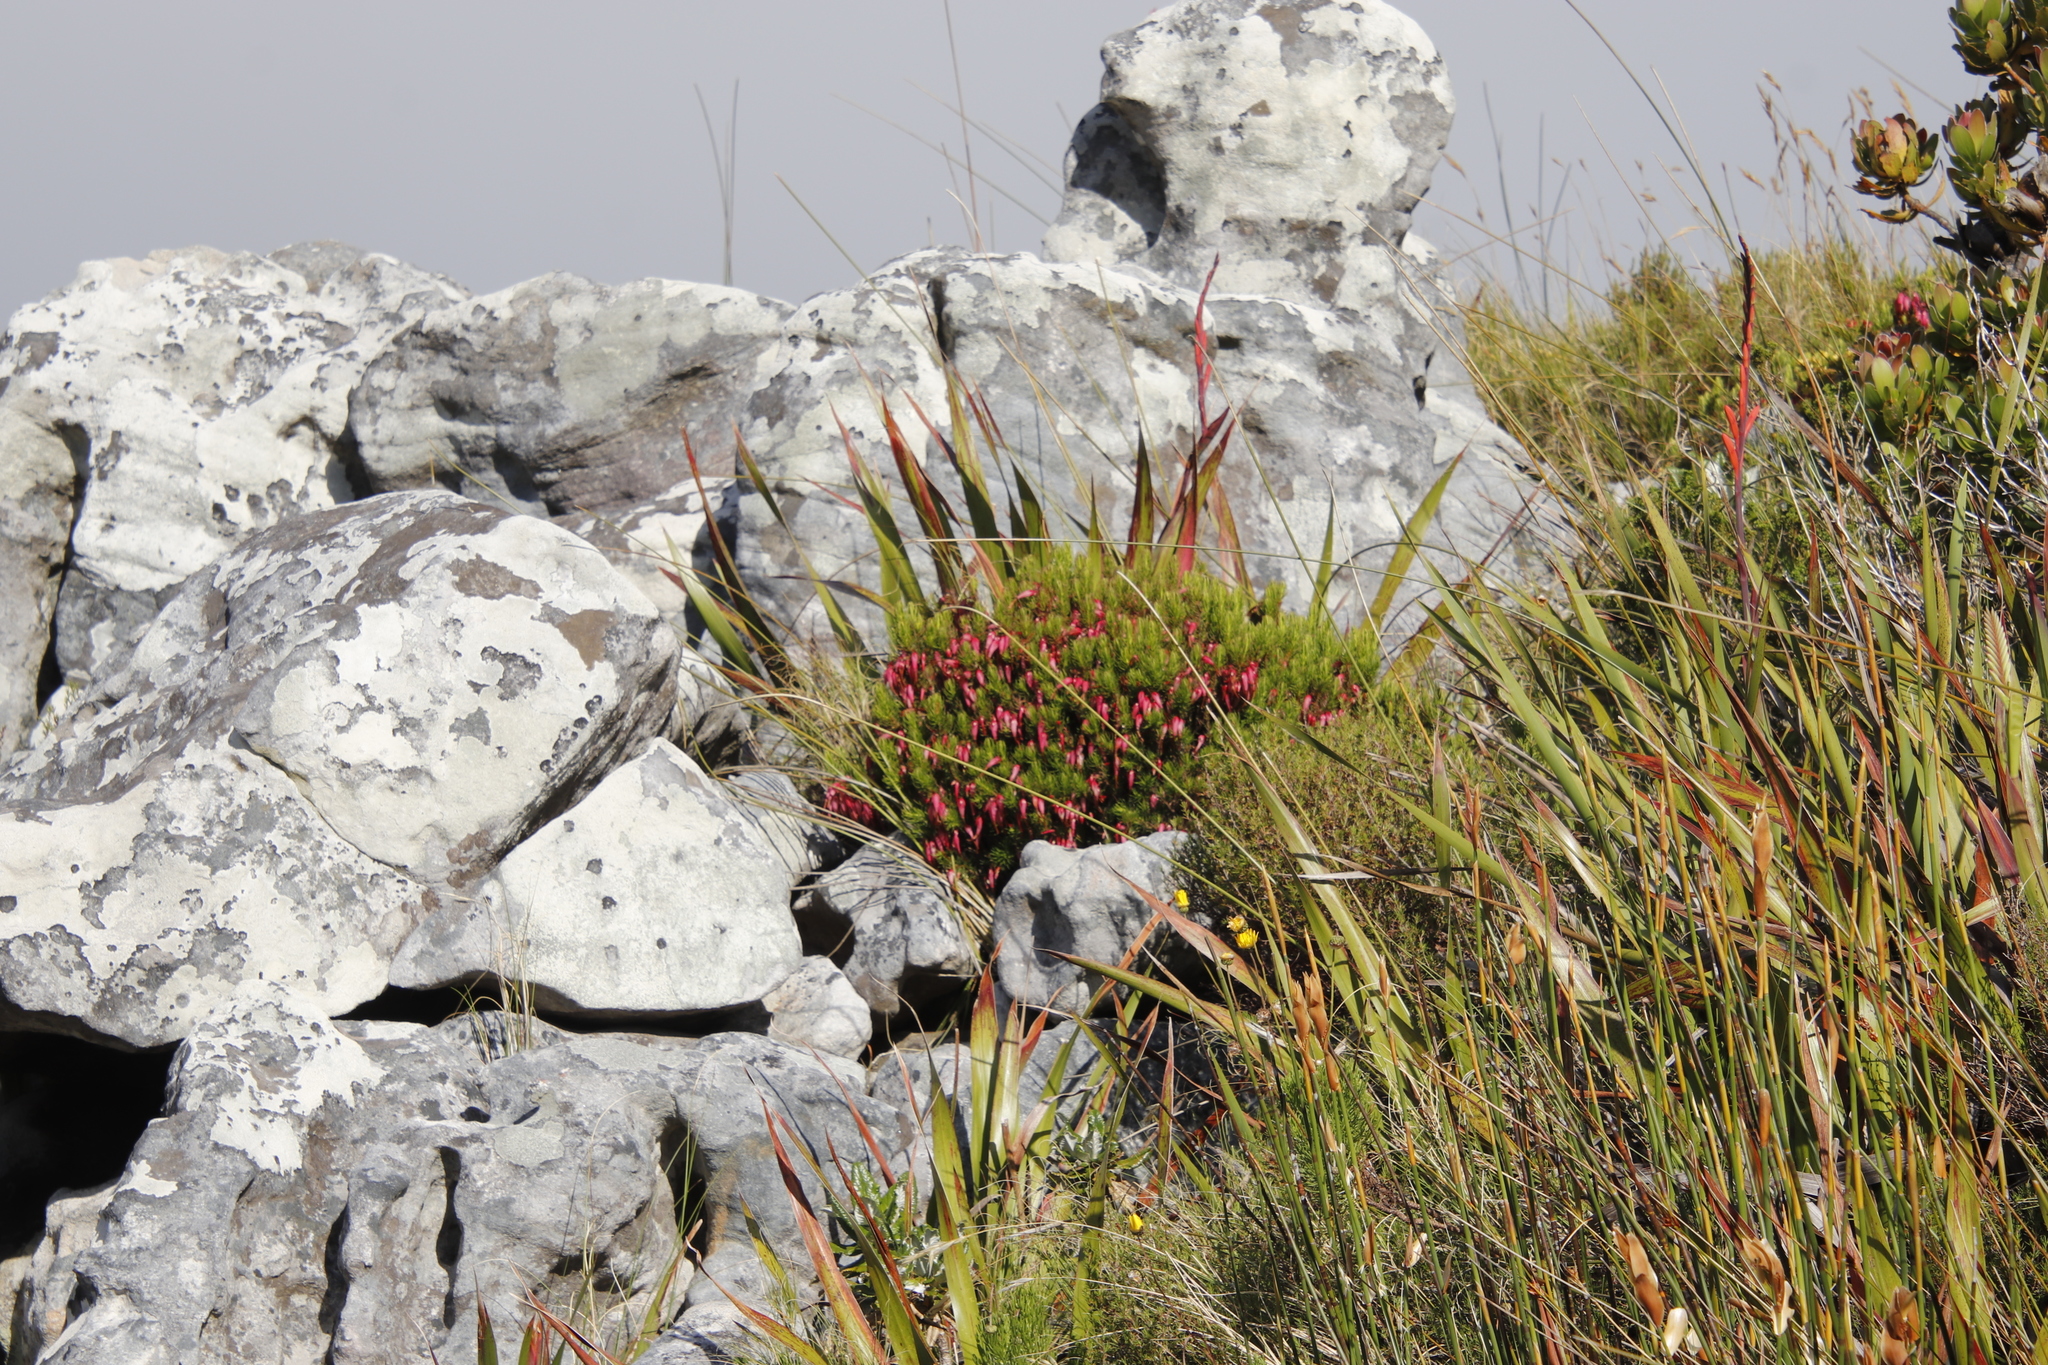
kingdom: Plantae
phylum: Tracheophyta
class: Magnoliopsida
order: Ericales
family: Ericaceae
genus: Erica
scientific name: Erica plukenetii
